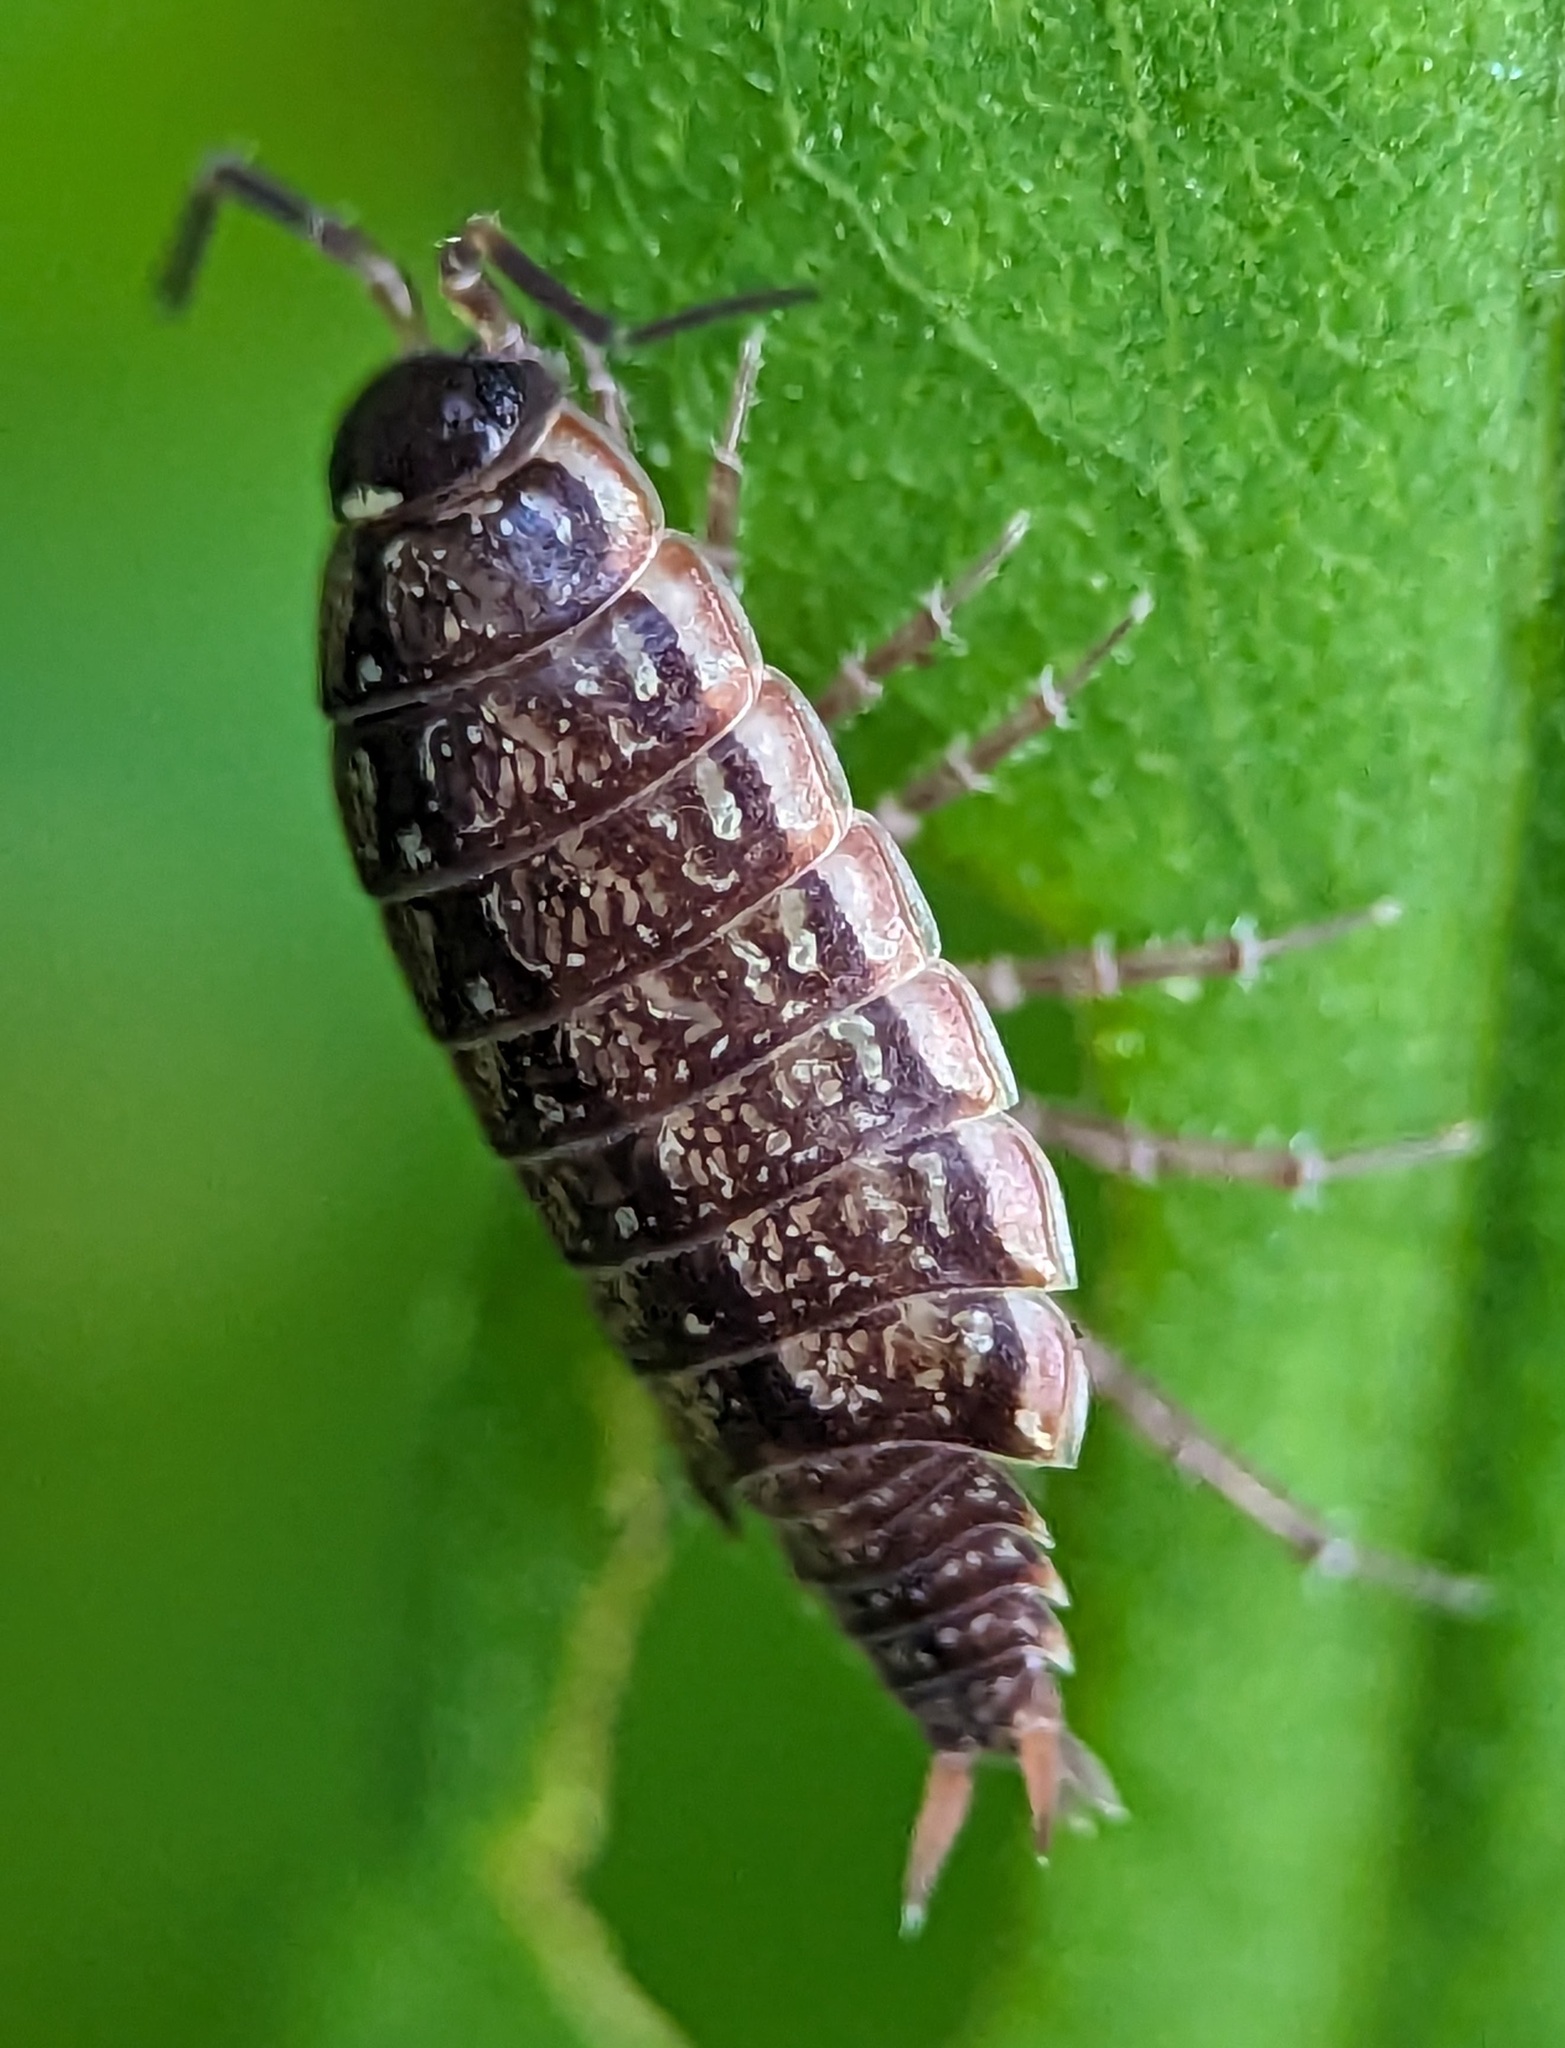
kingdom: Animalia
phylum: Arthropoda
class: Malacostraca
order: Isopoda
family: Philosciidae
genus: Philoscia
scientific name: Philoscia muscorum
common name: Common striped woodlouse
